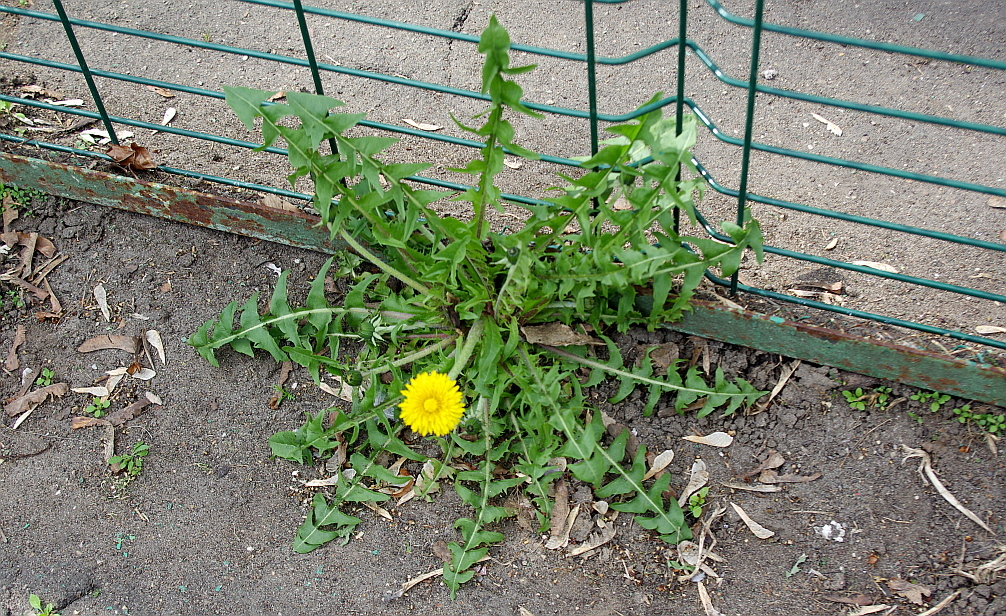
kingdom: Plantae
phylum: Tracheophyta
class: Magnoliopsida
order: Asterales
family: Asteraceae
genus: Taraxacum
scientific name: Taraxacum officinale
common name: Common dandelion
